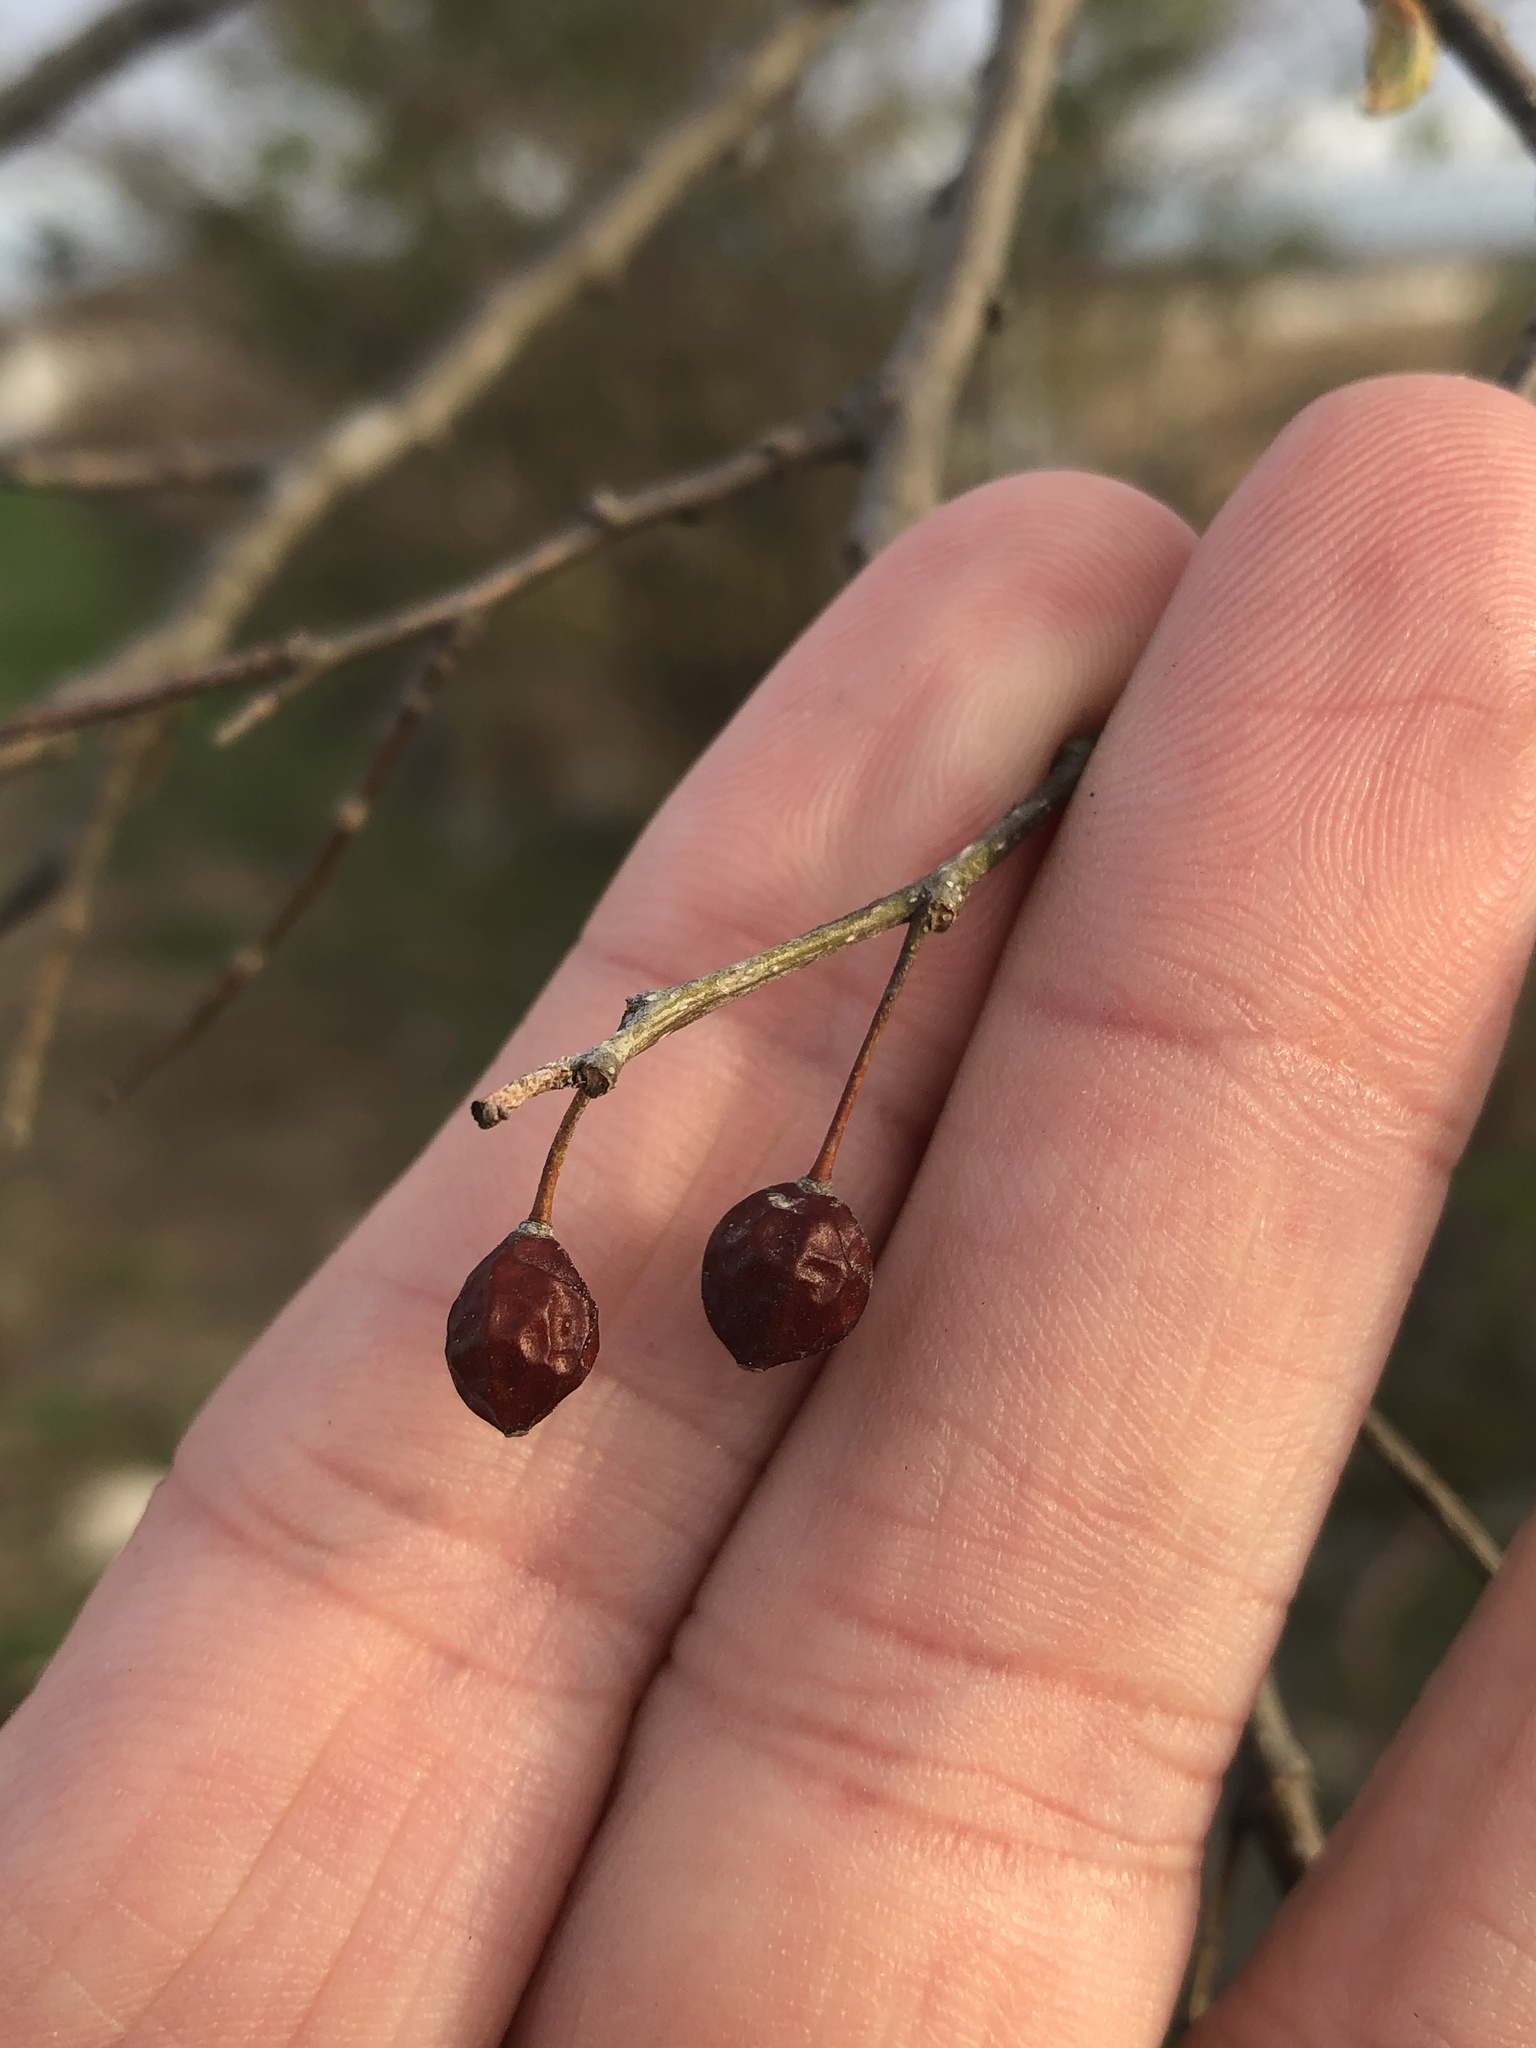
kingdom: Plantae
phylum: Tracheophyta
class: Magnoliopsida
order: Rosales
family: Cannabaceae
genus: Celtis
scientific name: Celtis laevigata
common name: Sugarberry
